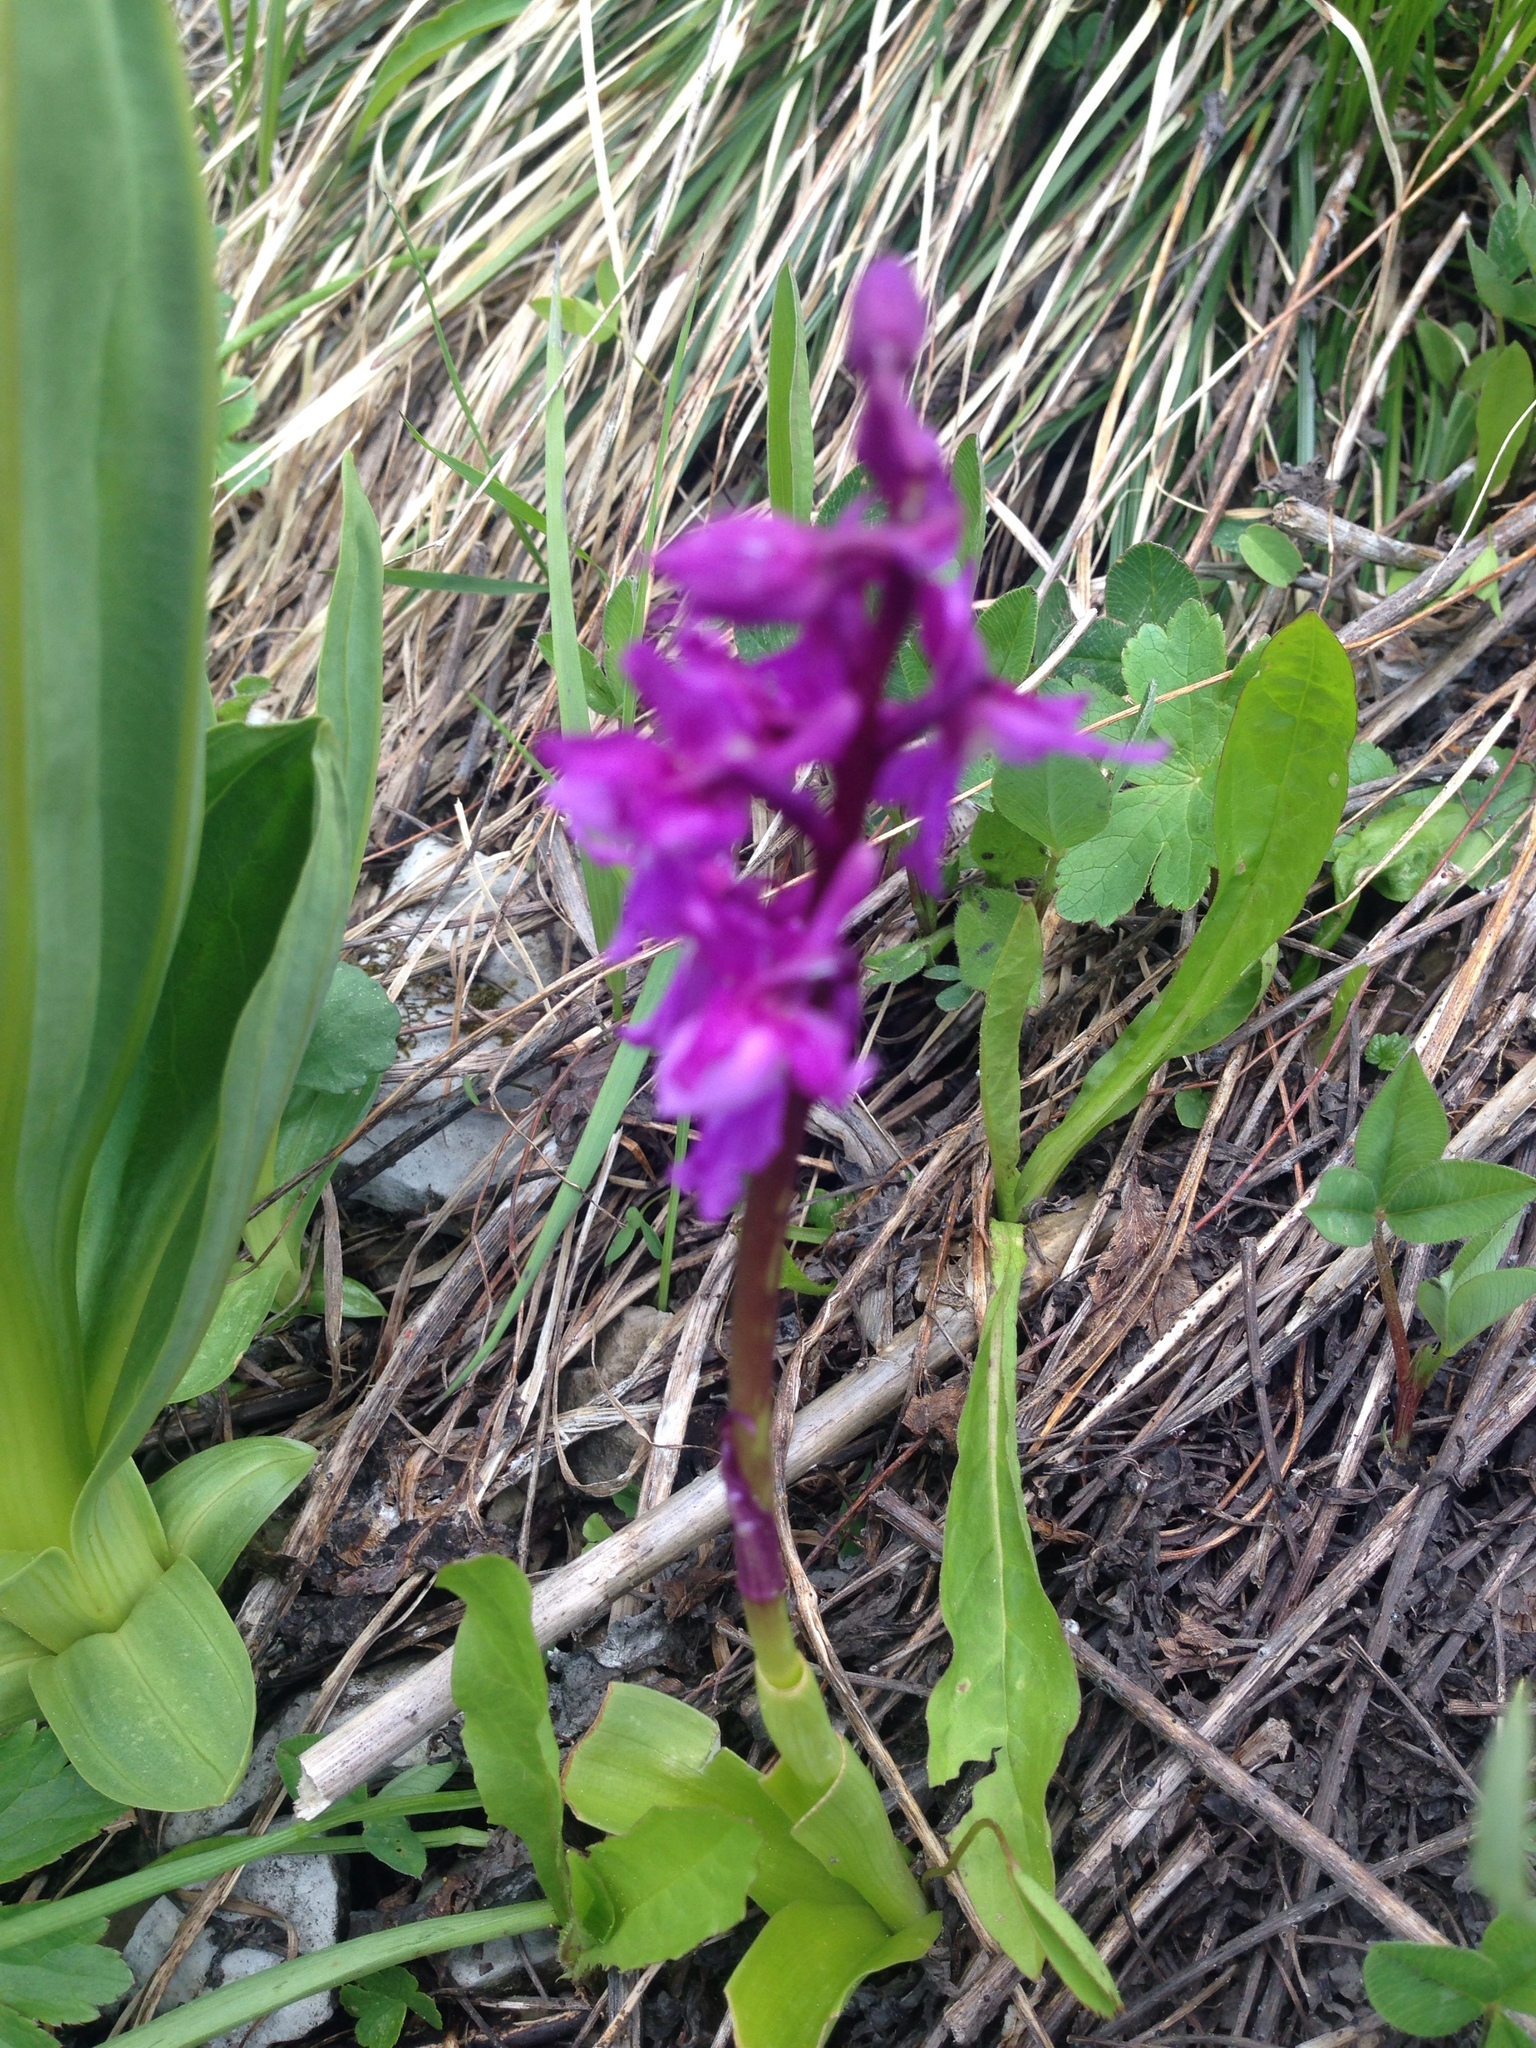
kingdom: Plantae
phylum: Tracheophyta
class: Liliopsida
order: Asparagales
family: Orchidaceae
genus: Orchis
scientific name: Orchis mascula
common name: Early-purple orchid
